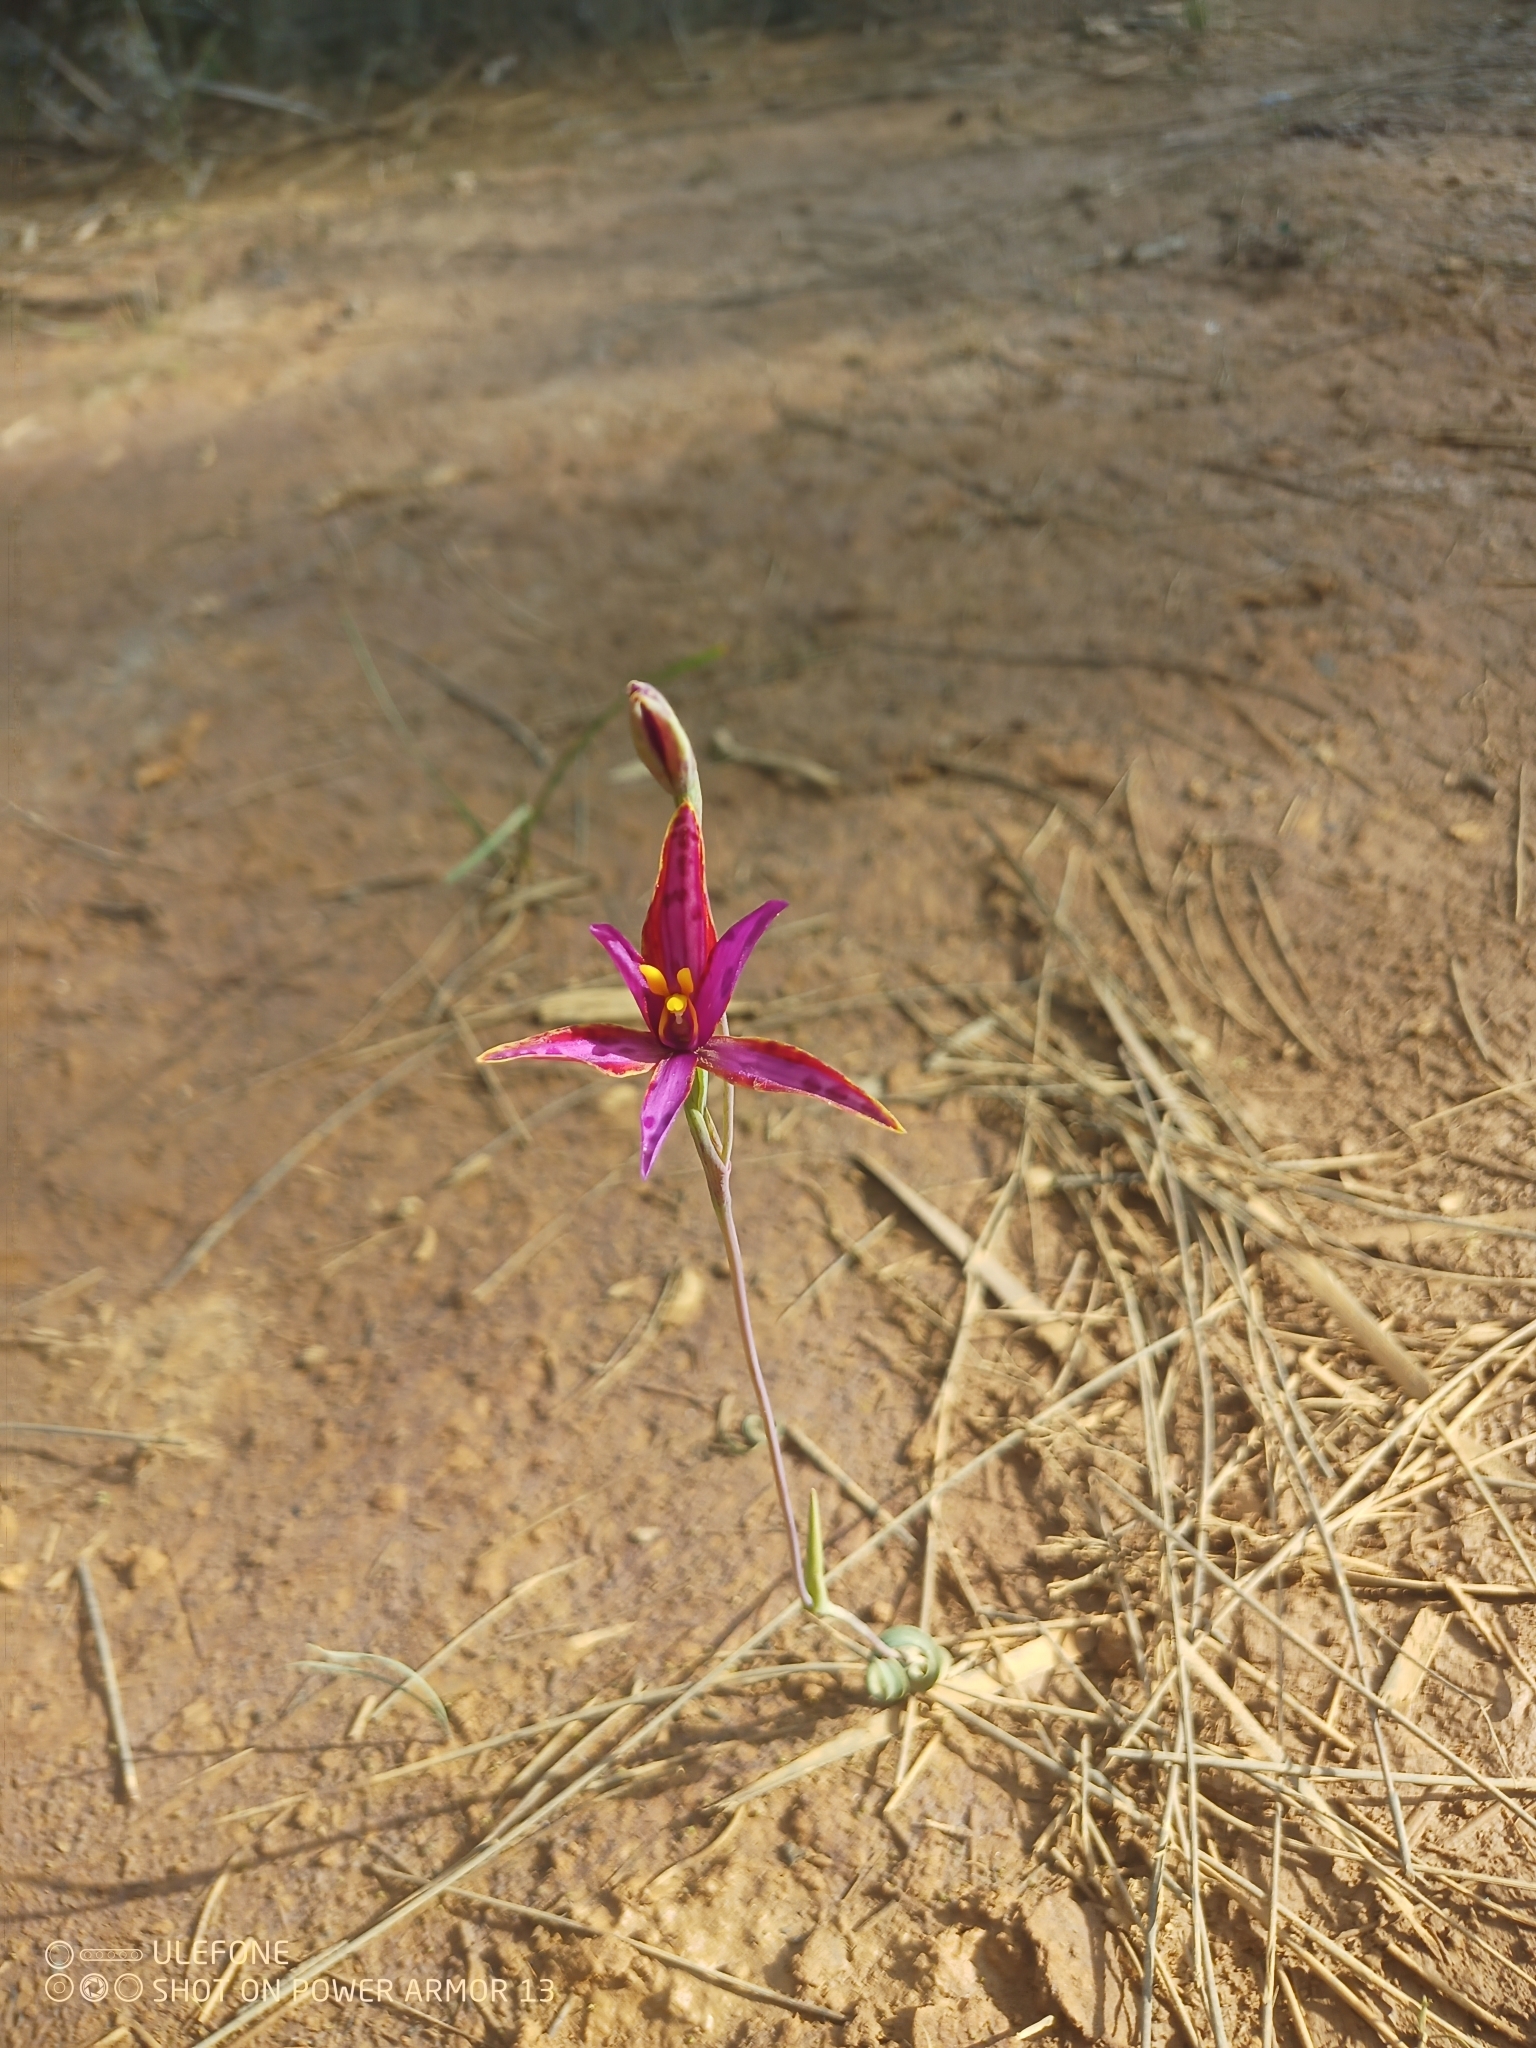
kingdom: Plantae
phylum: Tracheophyta
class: Liliopsida
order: Asparagales
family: Orchidaceae
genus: Thelymitra
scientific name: Thelymitra porphyrosticta
